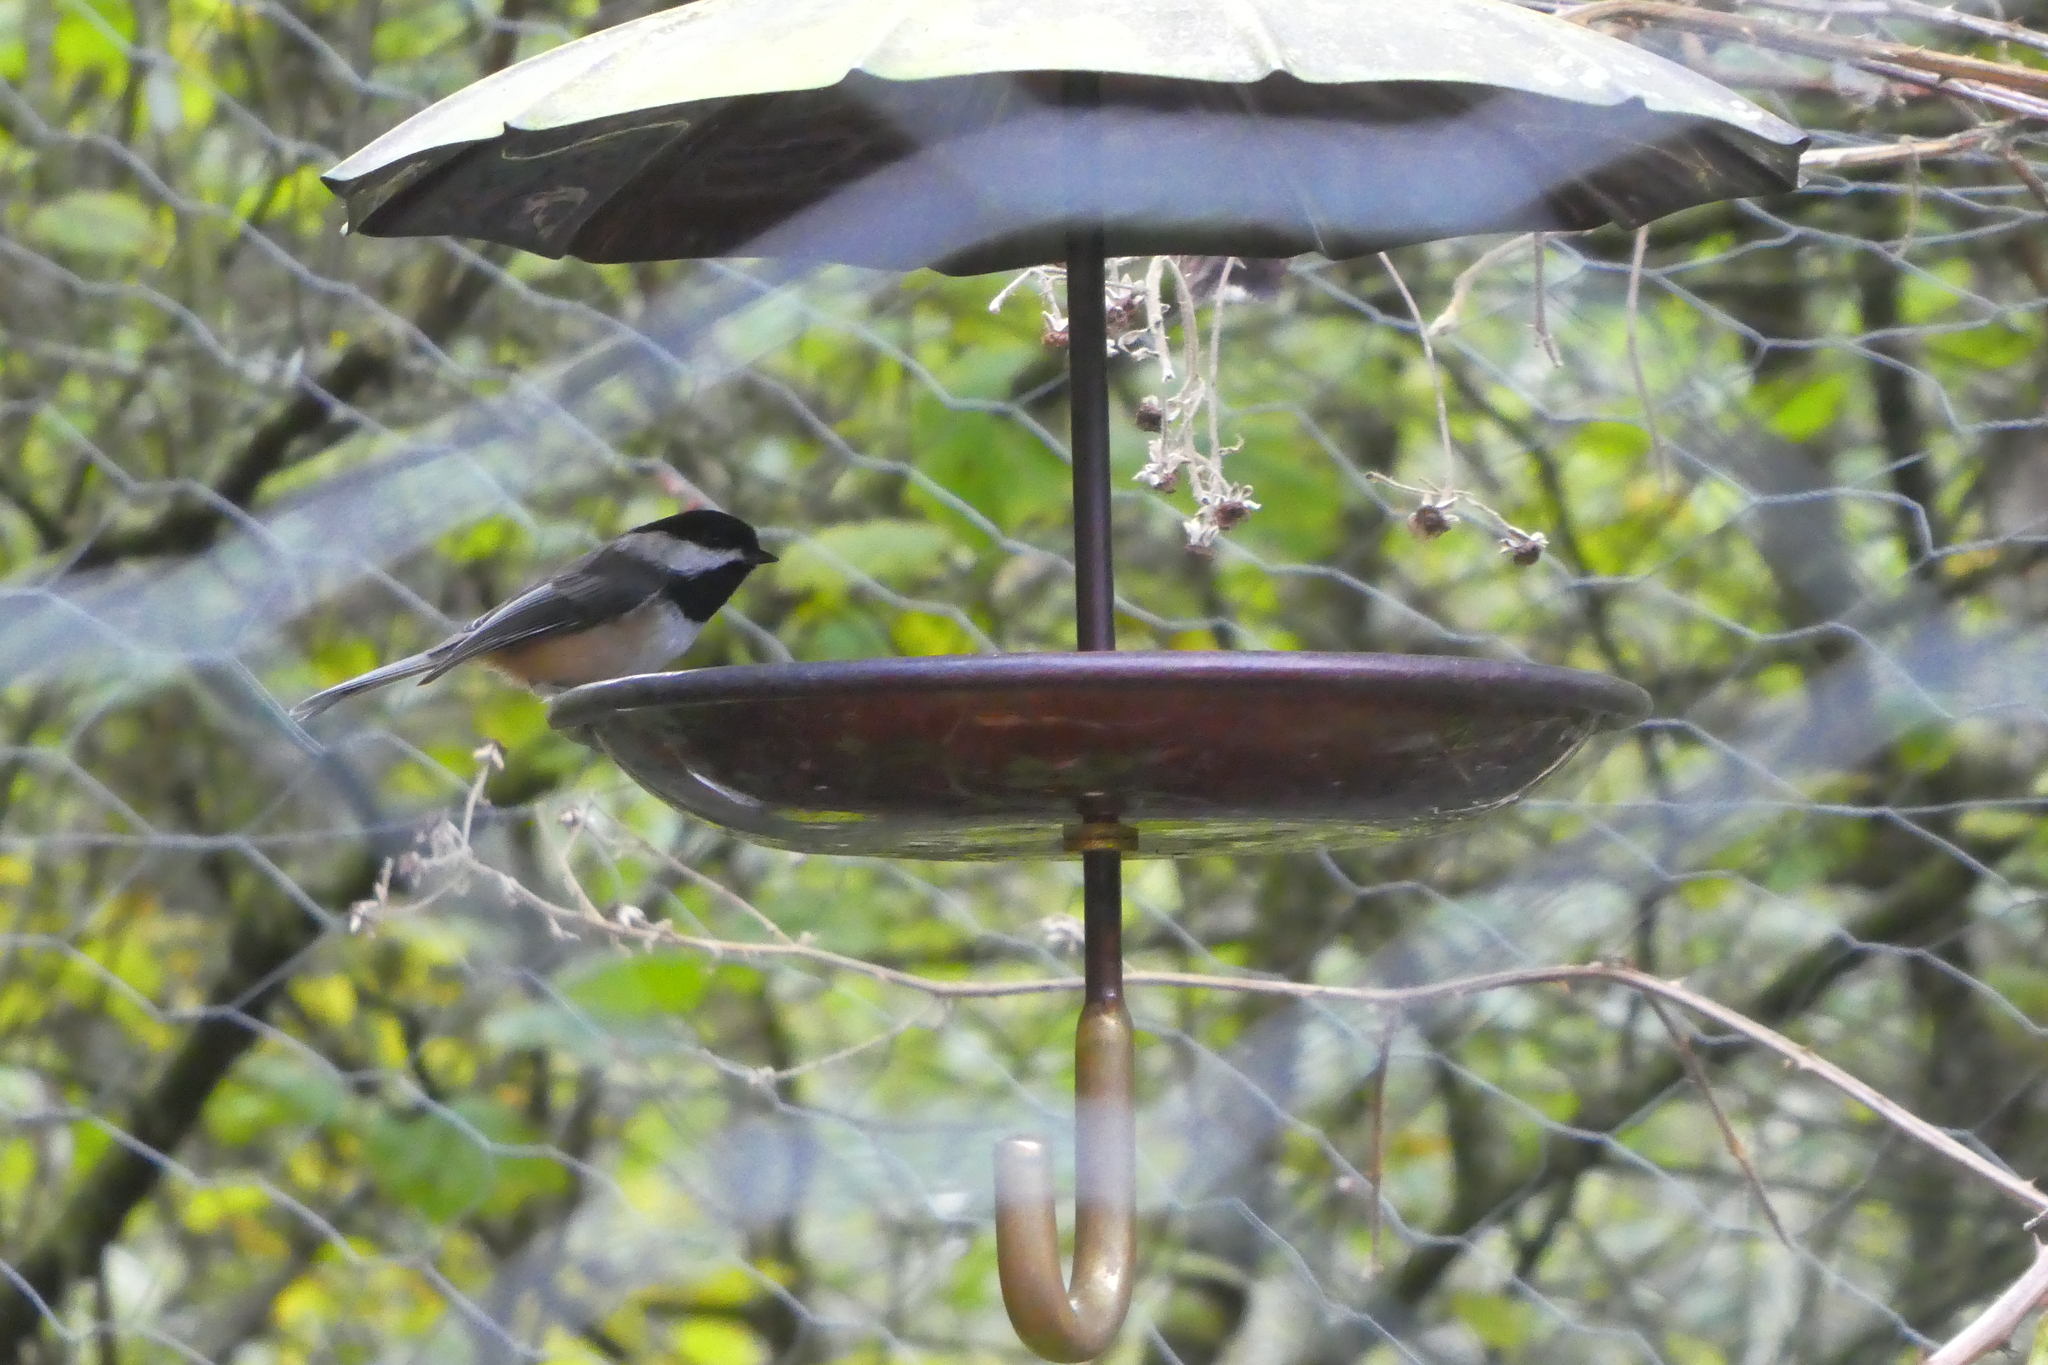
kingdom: Animalia
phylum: Chordata
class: Aves
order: Passeriformes
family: Paridae
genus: Poecile
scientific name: Poecile atricapillus
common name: Black-capped chickadee
